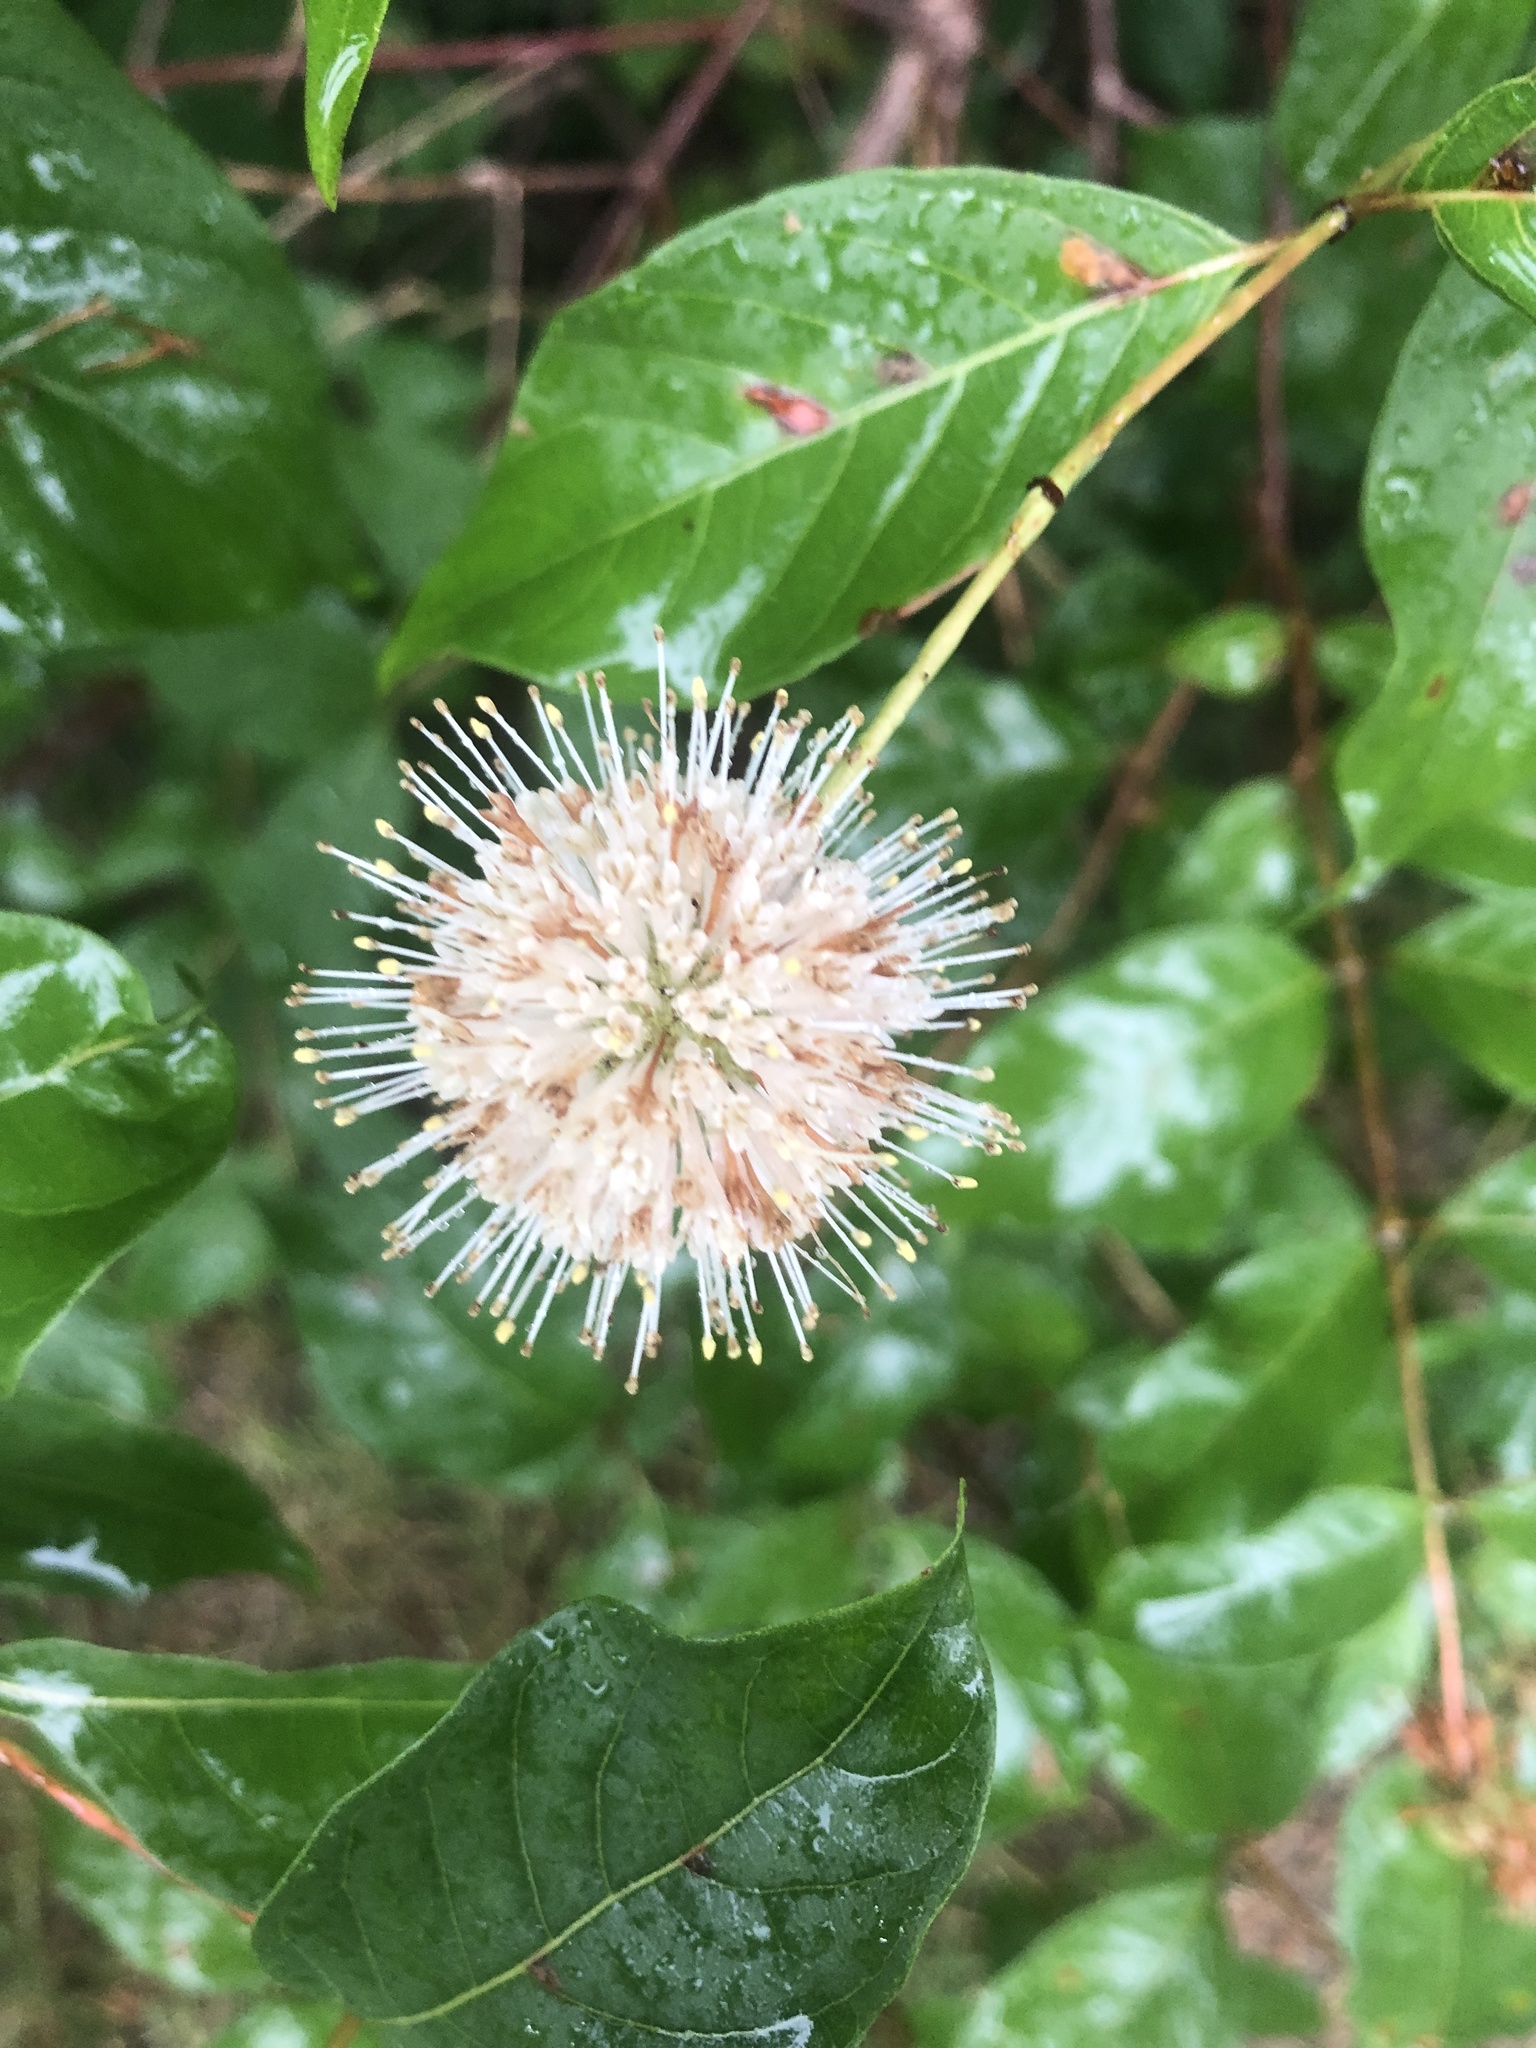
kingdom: Plantae
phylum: Tracheophyta
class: Magnoliopsida
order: Gentianales
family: Rubiaceae
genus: Cephalanthus
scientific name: Cephalanthus occidentalis
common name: Button-willow
